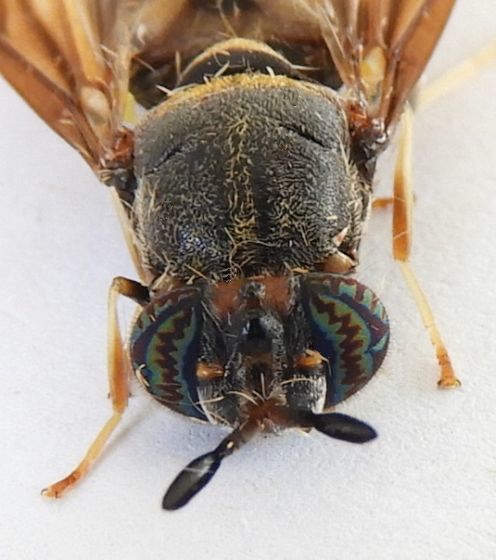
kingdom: Animalia
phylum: Arthropoda
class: Insecta
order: Diptera
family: Stratiomyidae
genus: Hermetia
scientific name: Hermetia subpellucida
